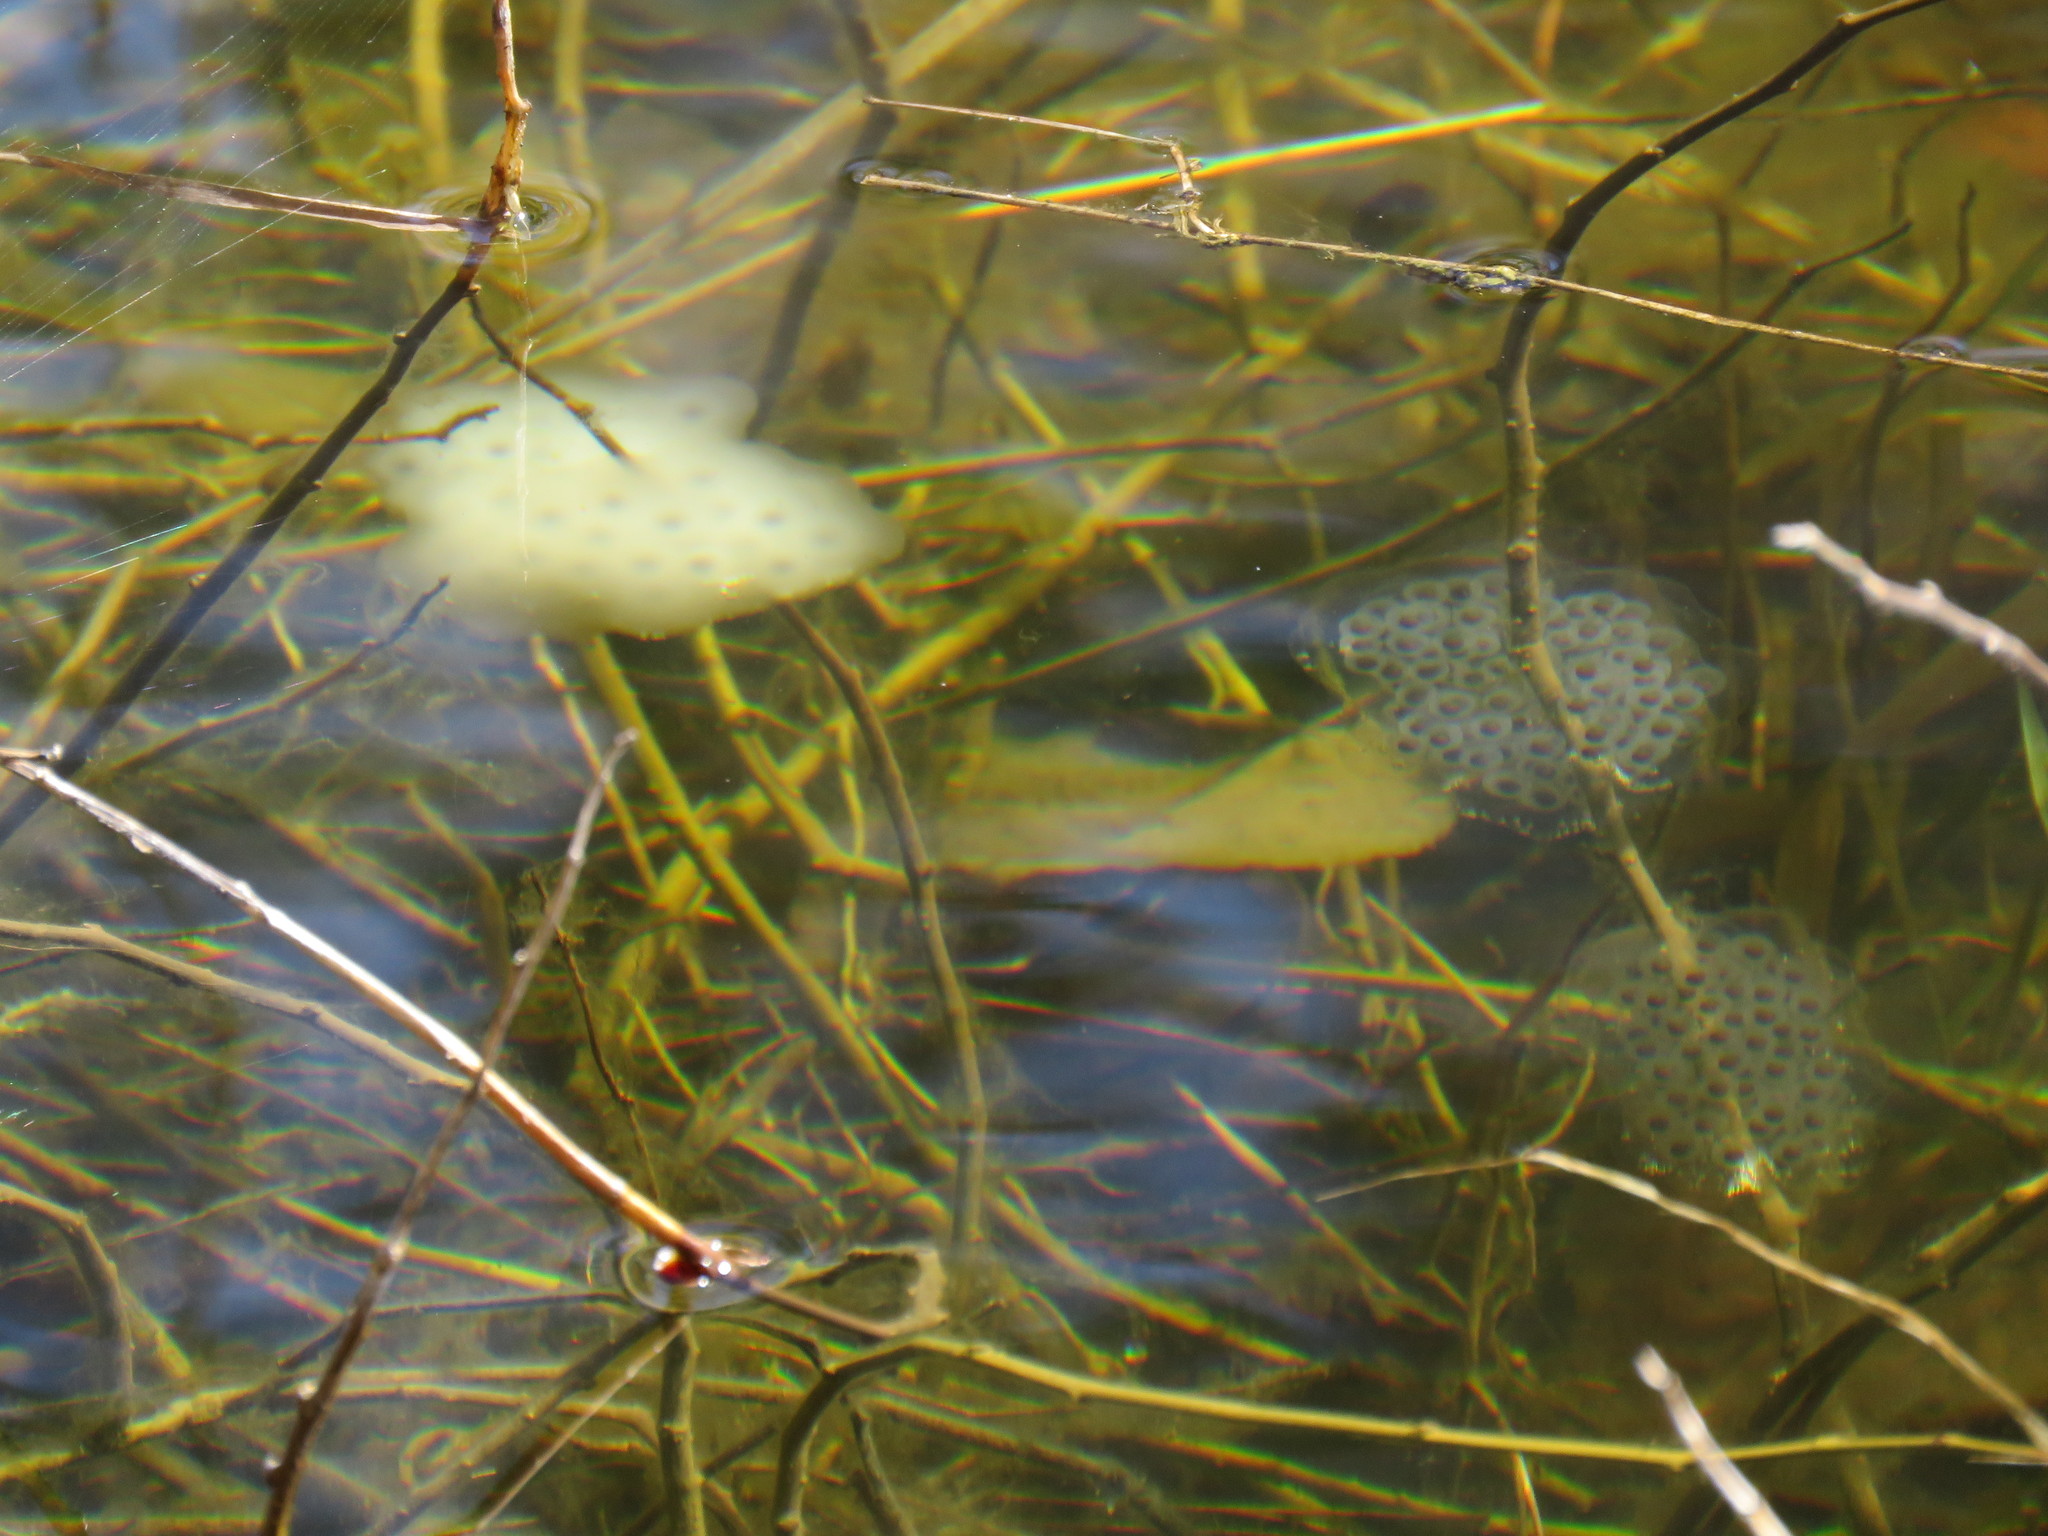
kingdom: Animalia
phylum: Chordata
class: Amphibia
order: Caudata
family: Ambystomatidae
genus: Ambystoma
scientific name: Ambystoma maculatum
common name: Spotted salamander
